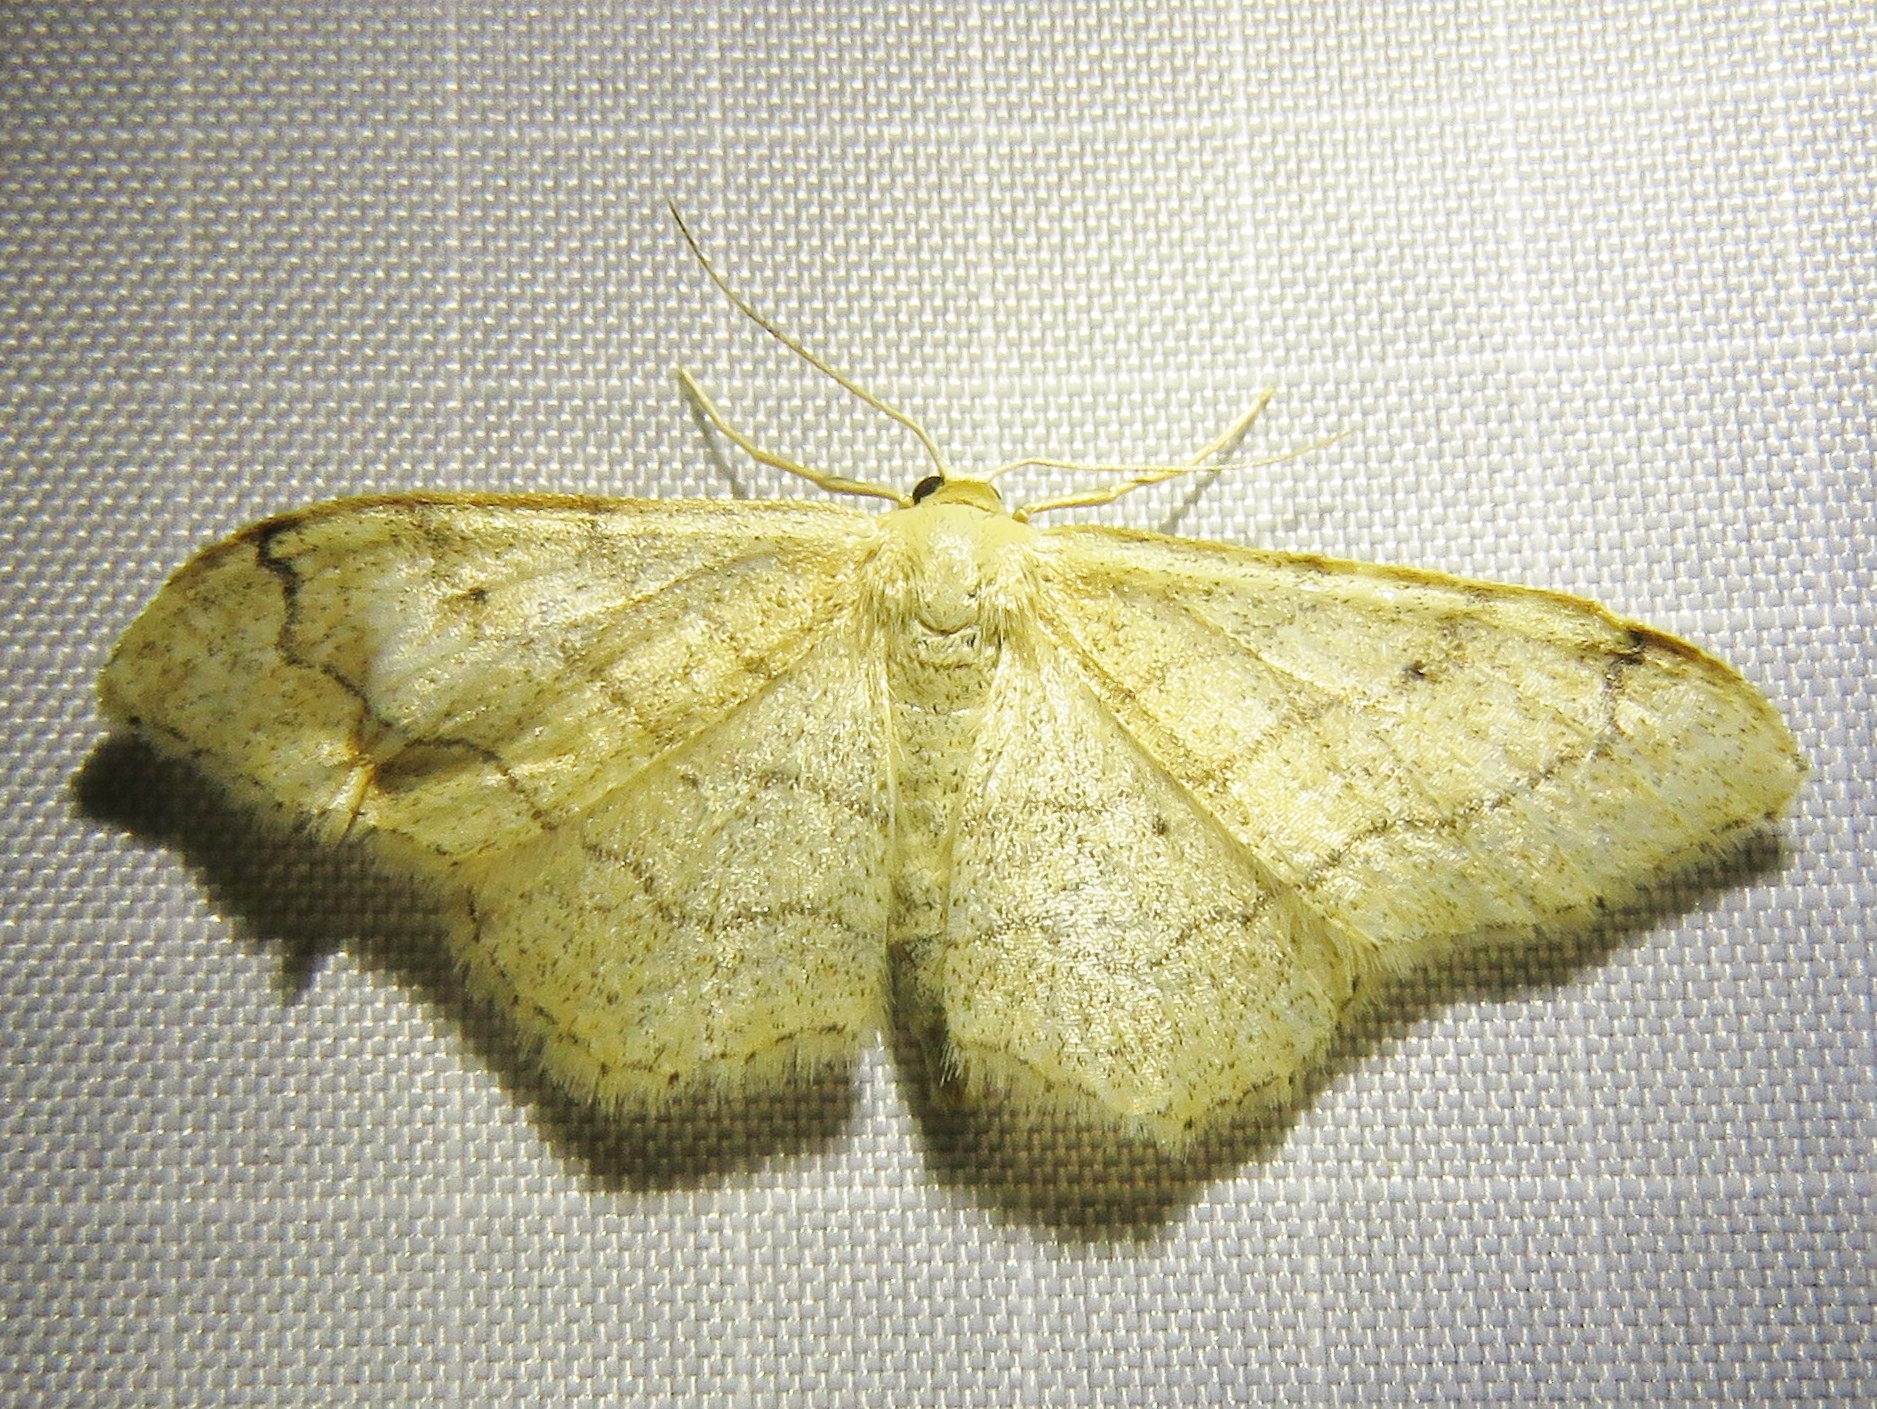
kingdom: Animalia
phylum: Arthropoda
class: Insecta
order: Lepidoptera
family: Geometridae
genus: Idaea
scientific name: Idaea aversata
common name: Riband wave
